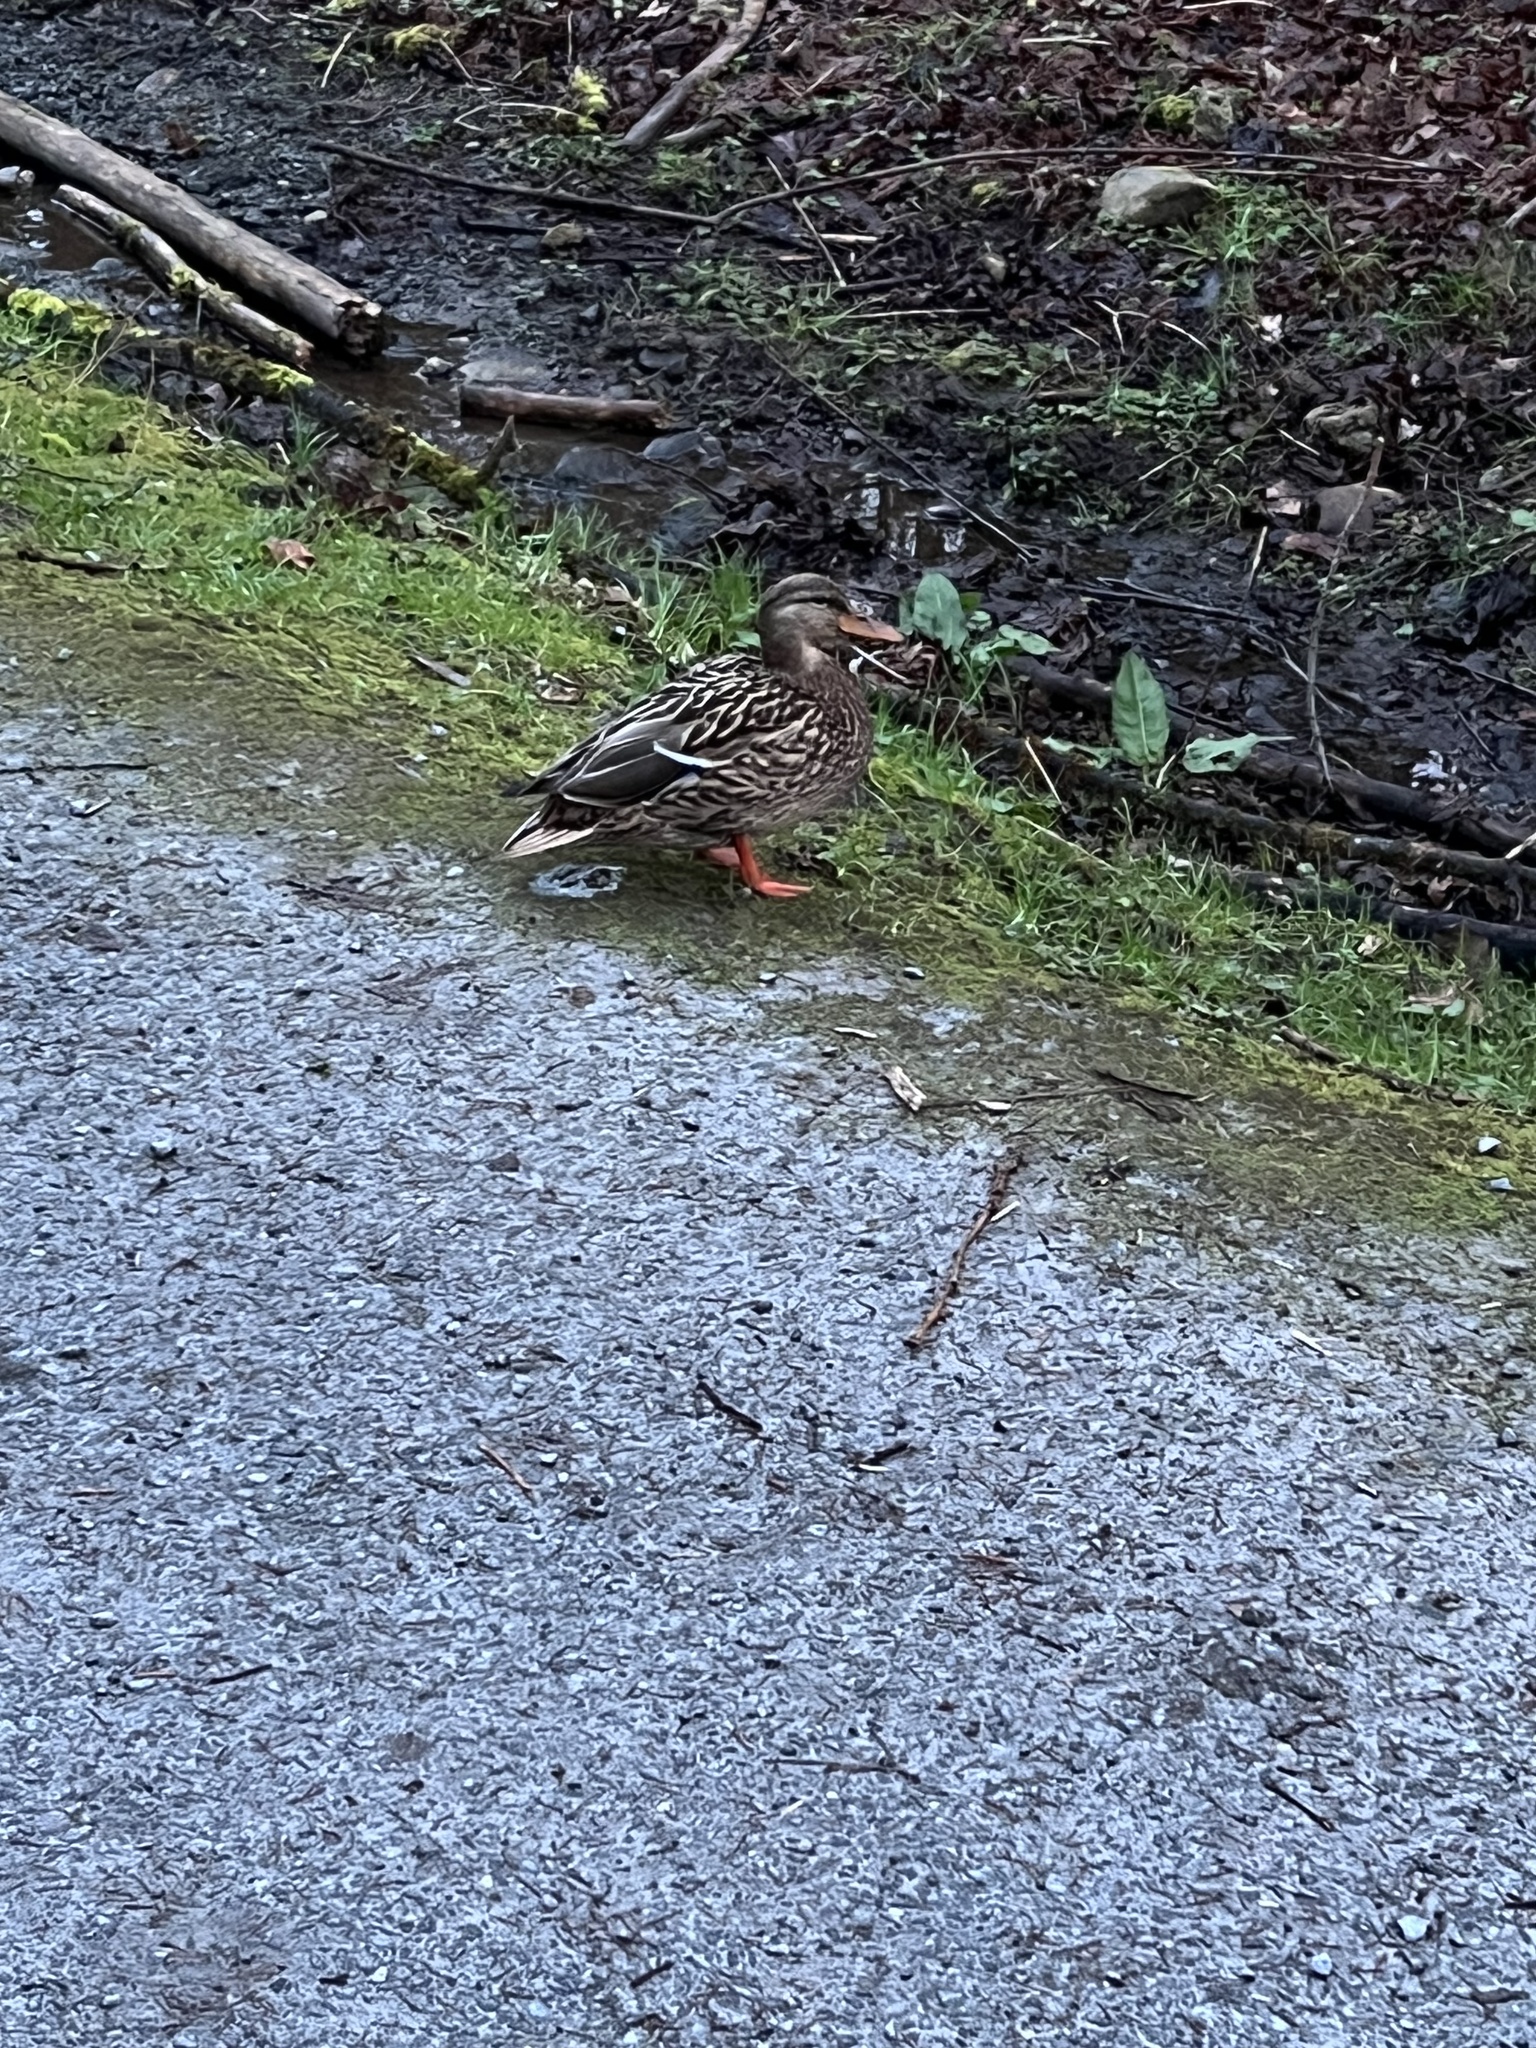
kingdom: Animalia
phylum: Chordata
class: Aves
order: Anseriformes
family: Anatidae
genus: Anas
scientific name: Anas platyrhynchos
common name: Mallard
